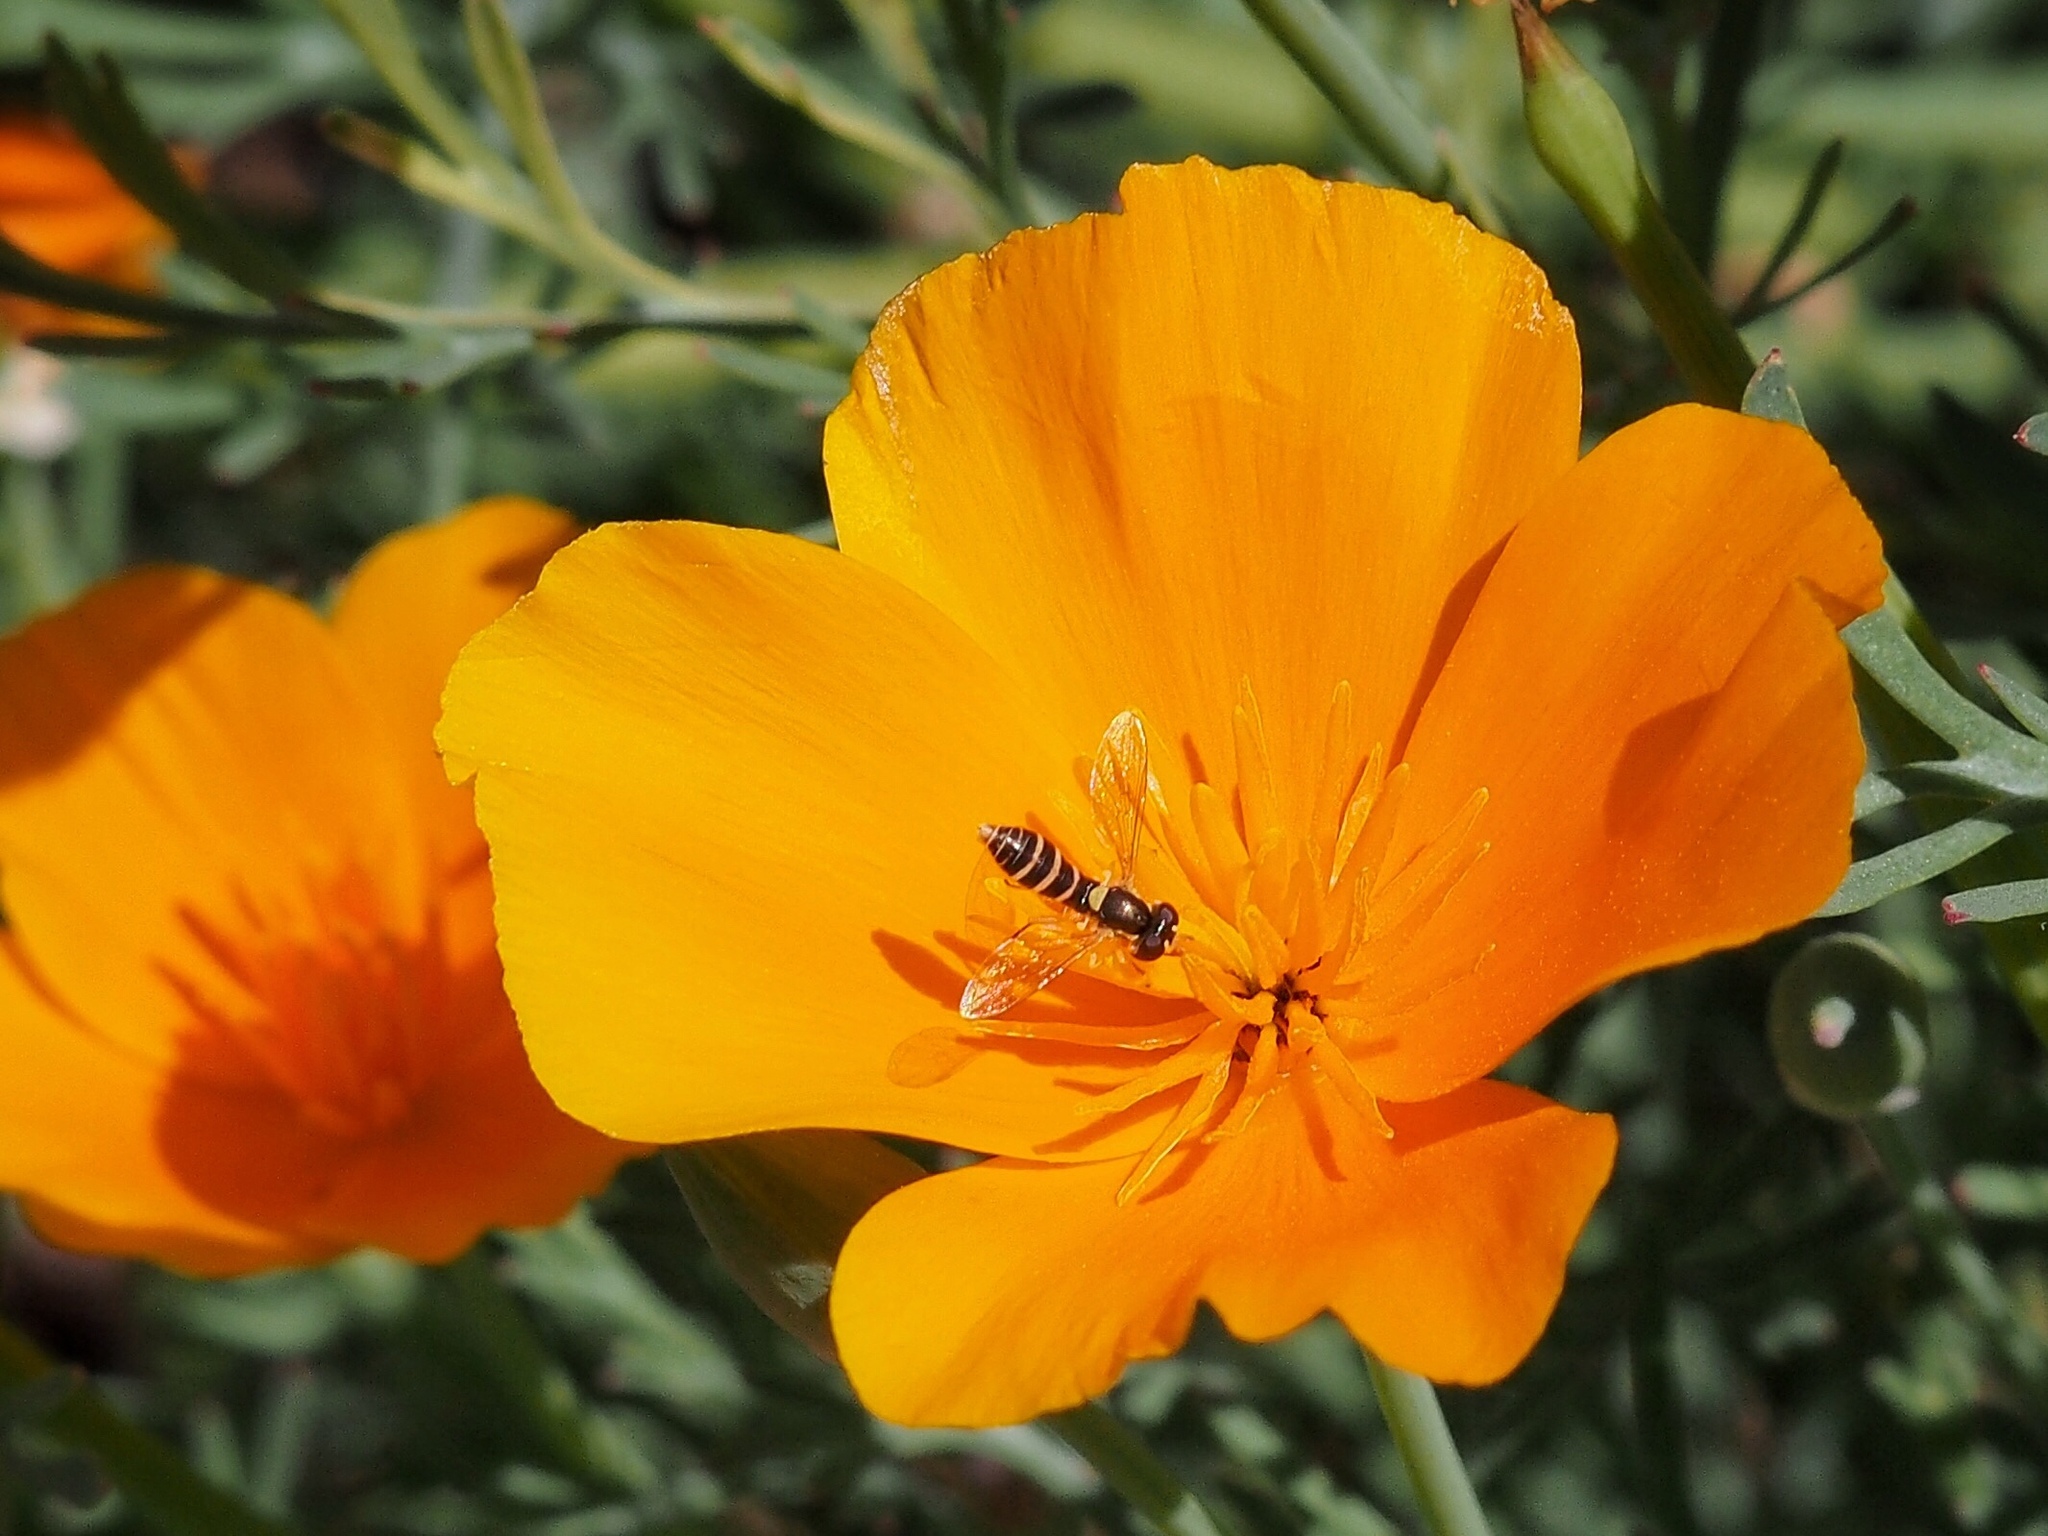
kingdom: Animalia
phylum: Arthropoda
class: Insecta
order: Diptera
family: Syrphidae
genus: Sphaerophoria
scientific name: Sphaerophoria sulphuripes
